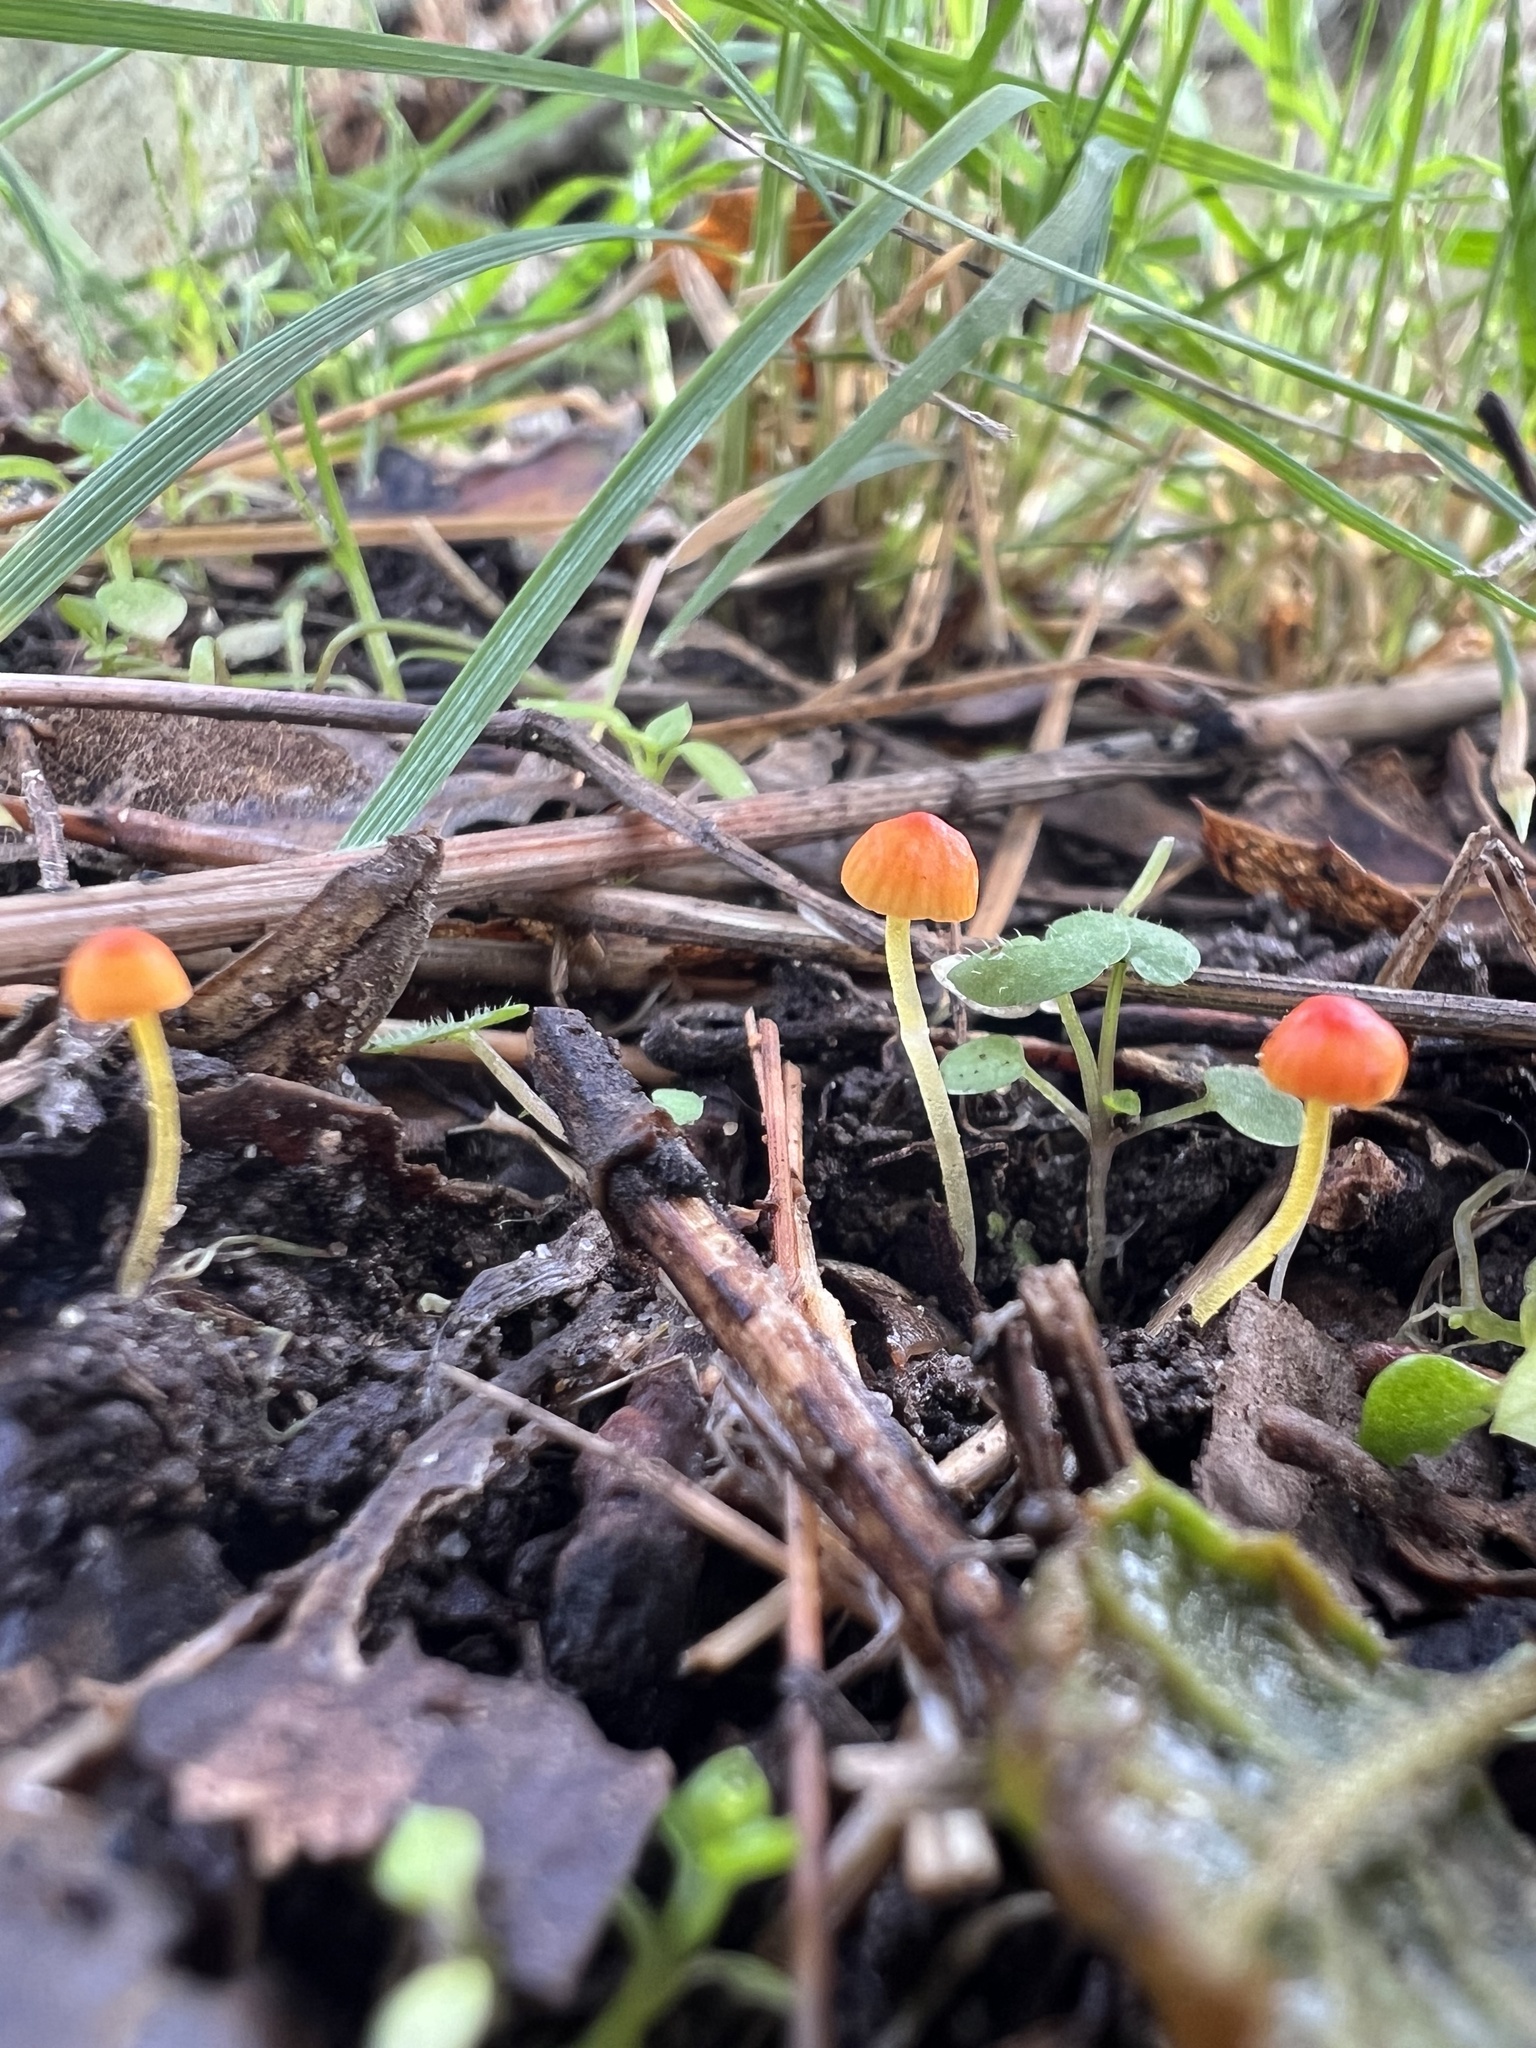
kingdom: Fungi
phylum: Basidiomycota
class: Agaricomycetes
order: Agaricales
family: Mycenaceae
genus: Mycena
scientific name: Mycena acicula
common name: Orange bonnet
